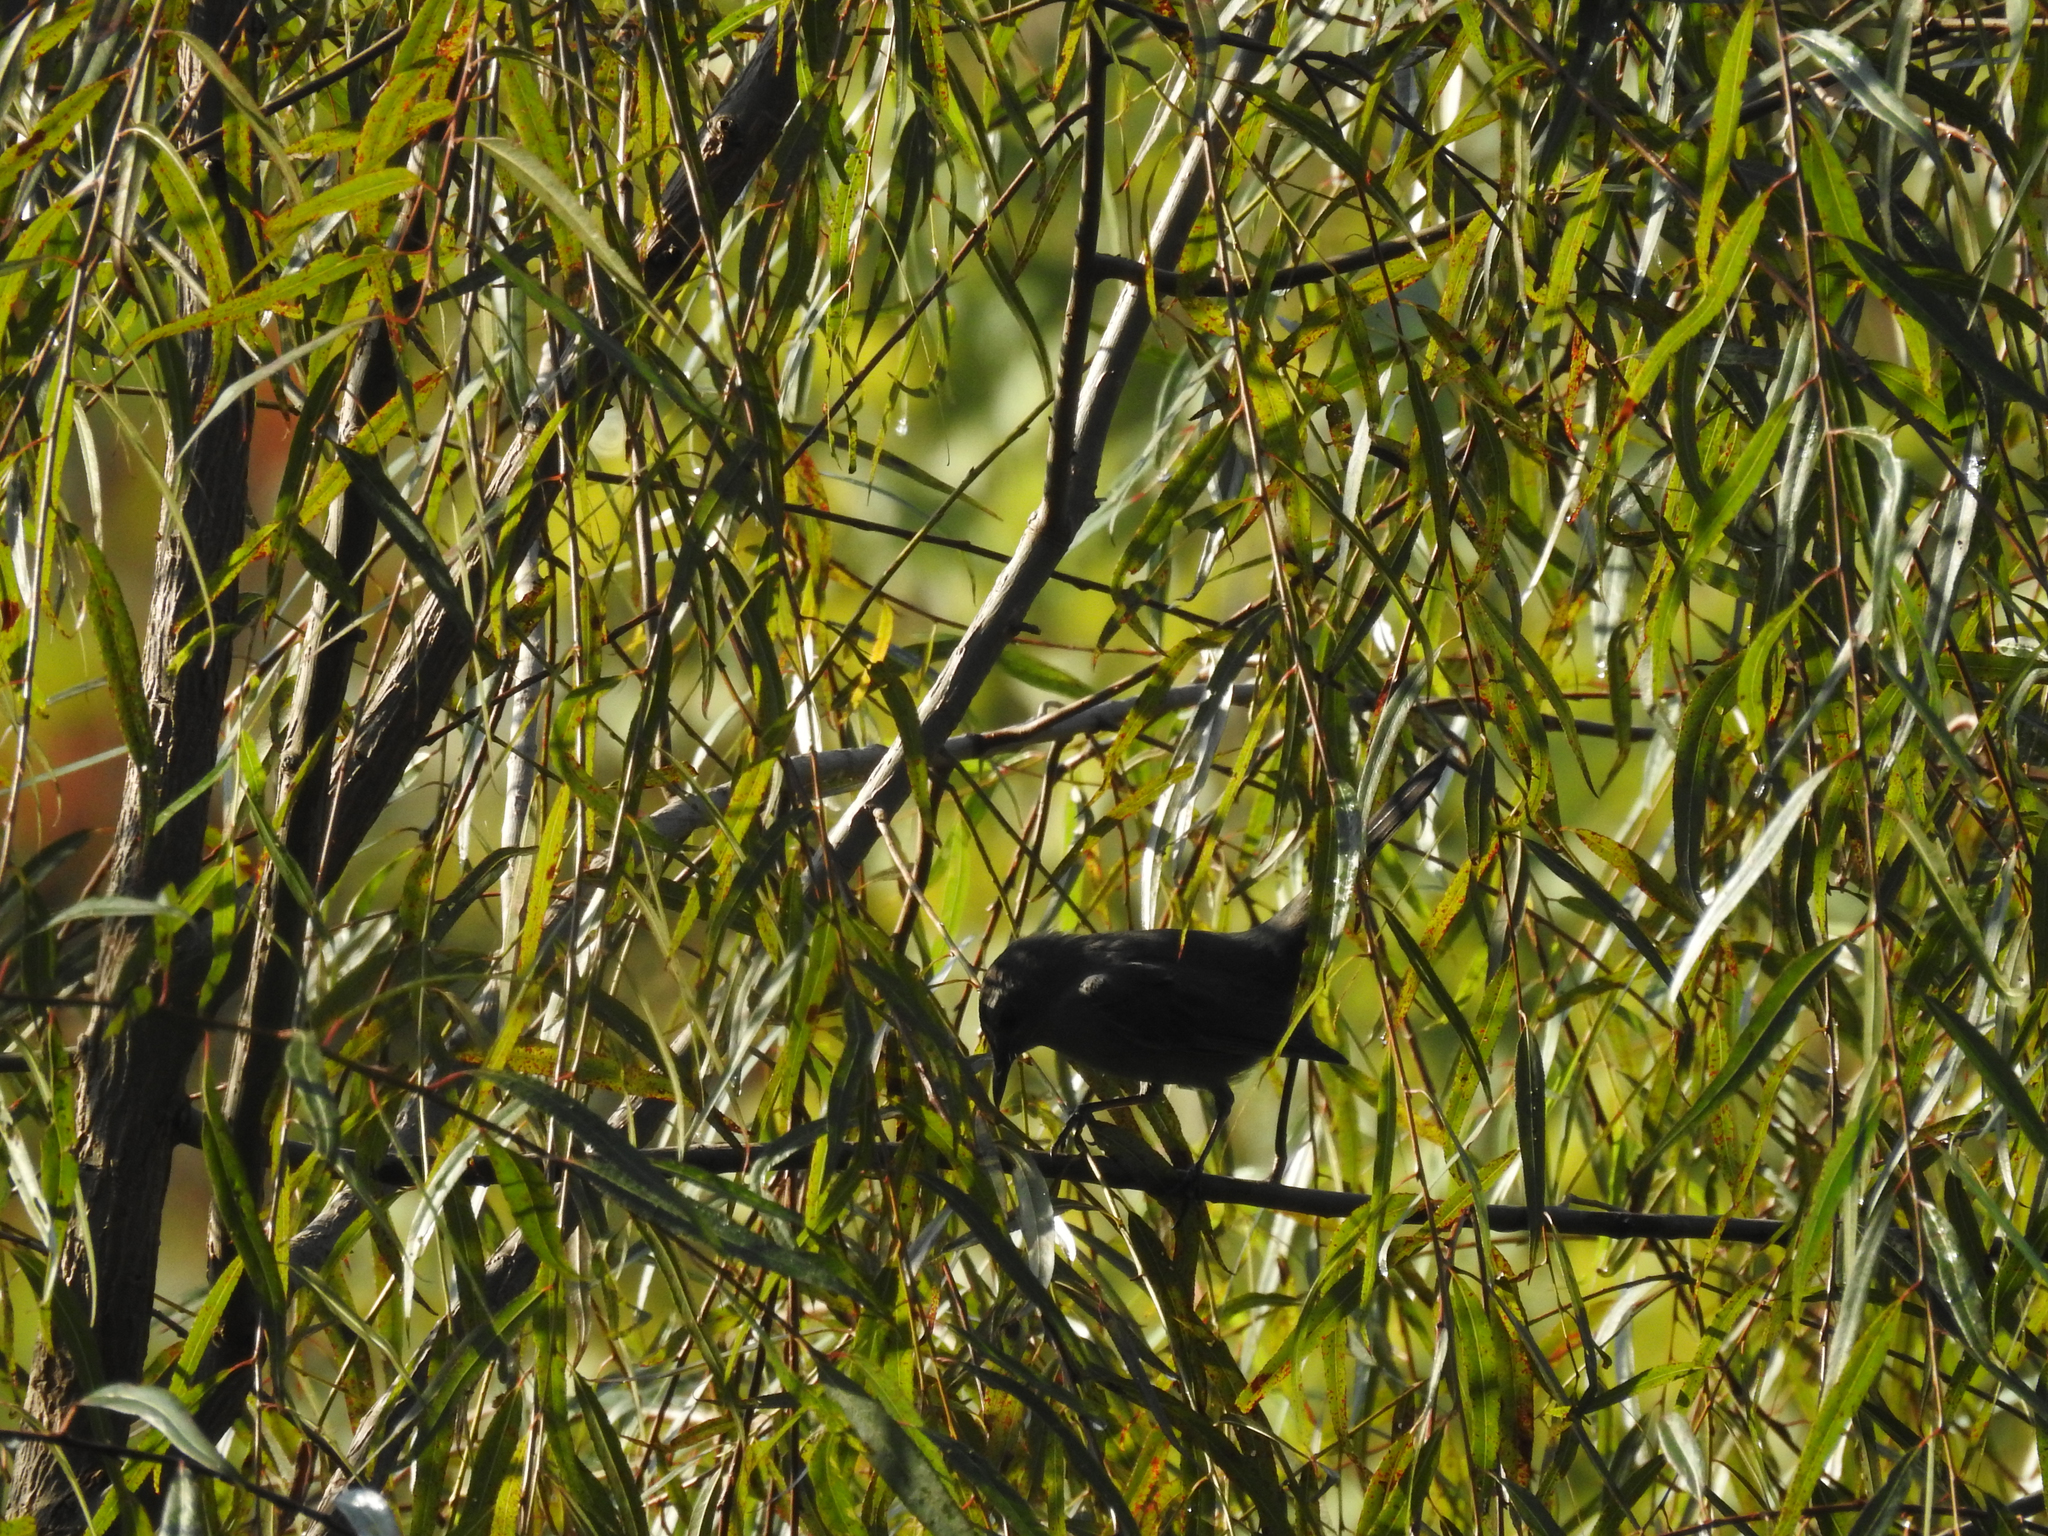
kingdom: Animalia
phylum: Chordata
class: Aves
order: Passeriformes
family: Mimidae
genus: Dumetella
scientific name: Dumetella carolinensis
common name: Gray catbird
